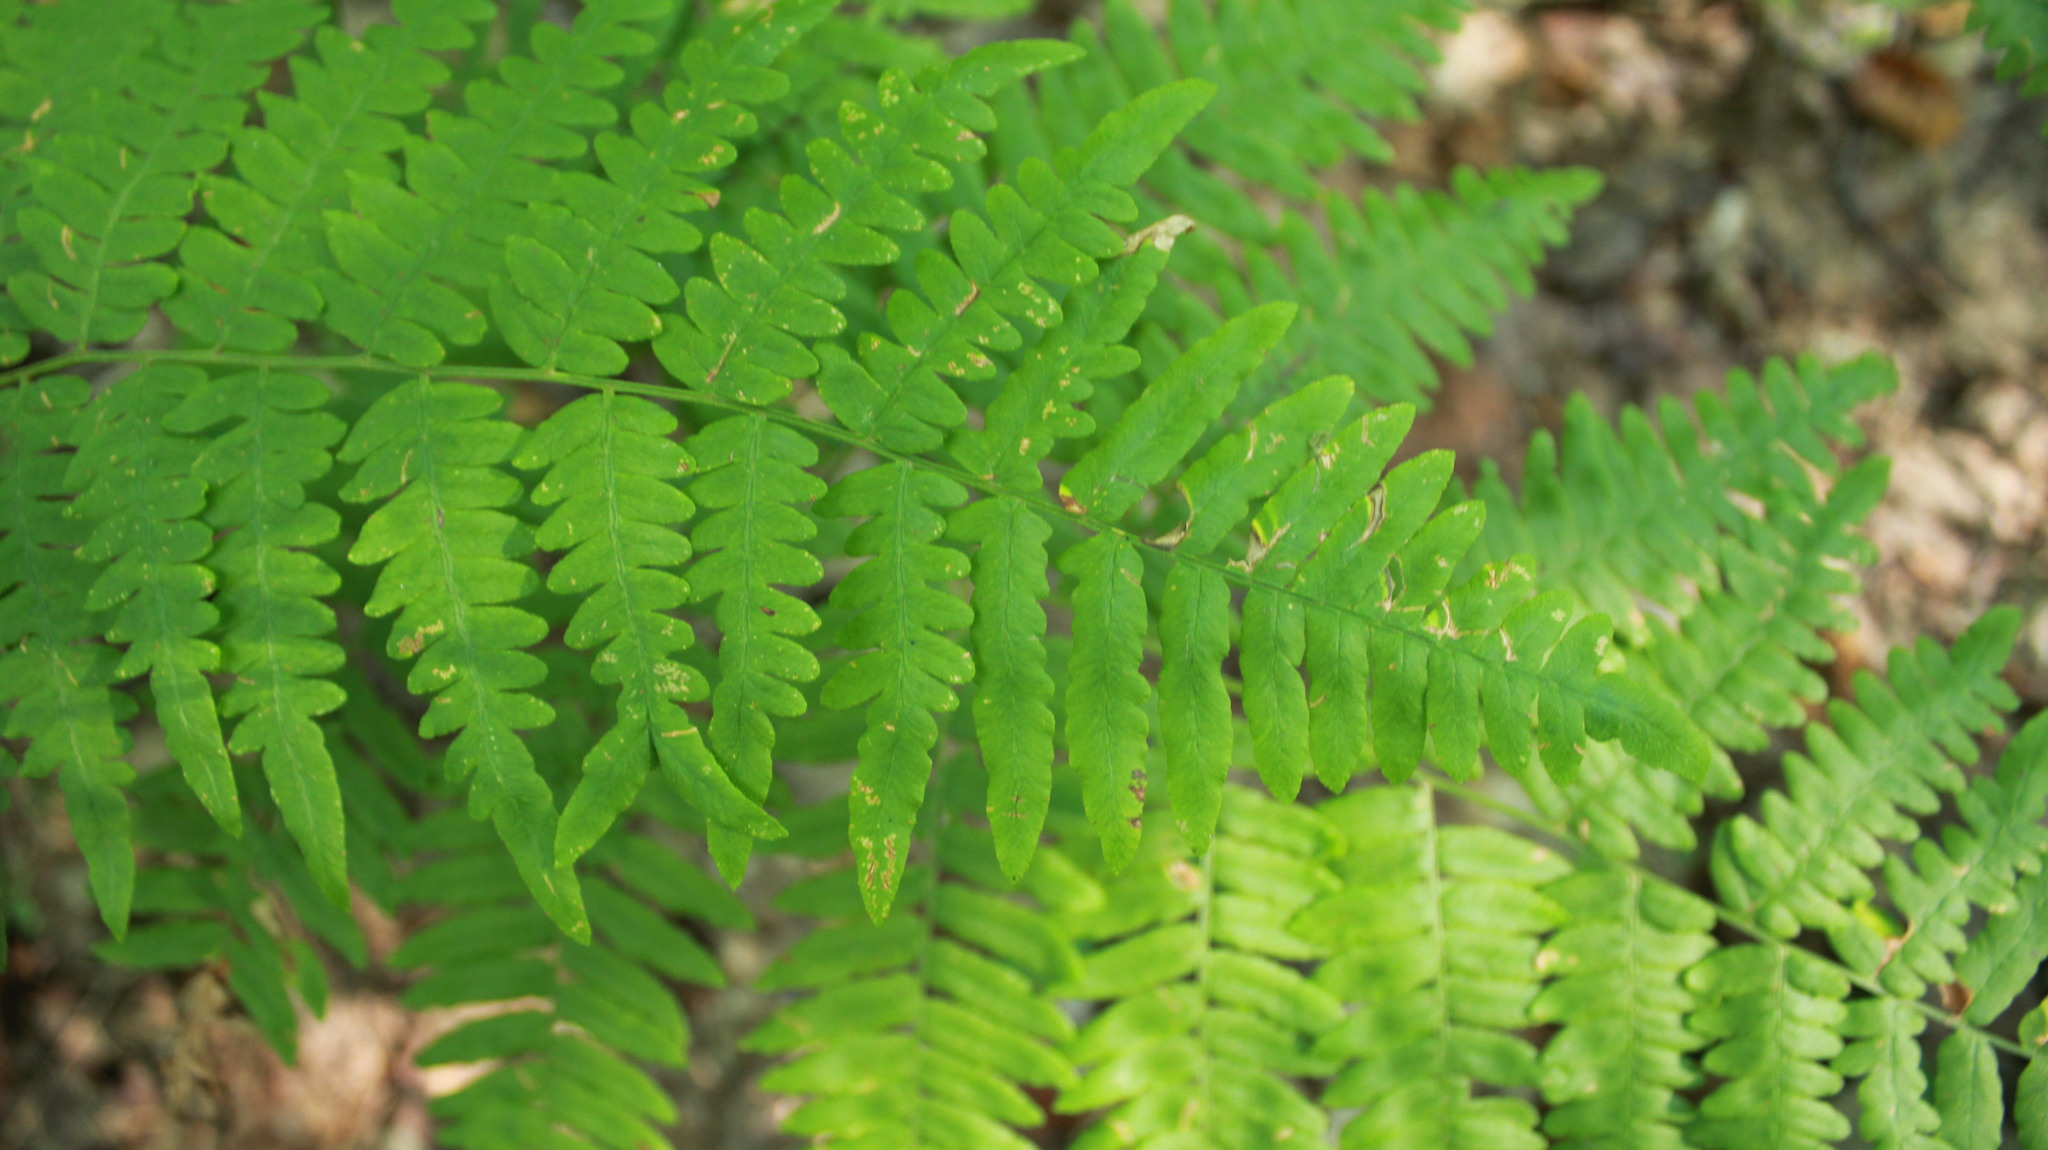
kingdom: Plantae
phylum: Tracheophyta
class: Polypodiopsida
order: Polypodiales
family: Dennstaedtiaceae
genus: Pteridium
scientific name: Pteridium aquilinum
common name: Bracken
